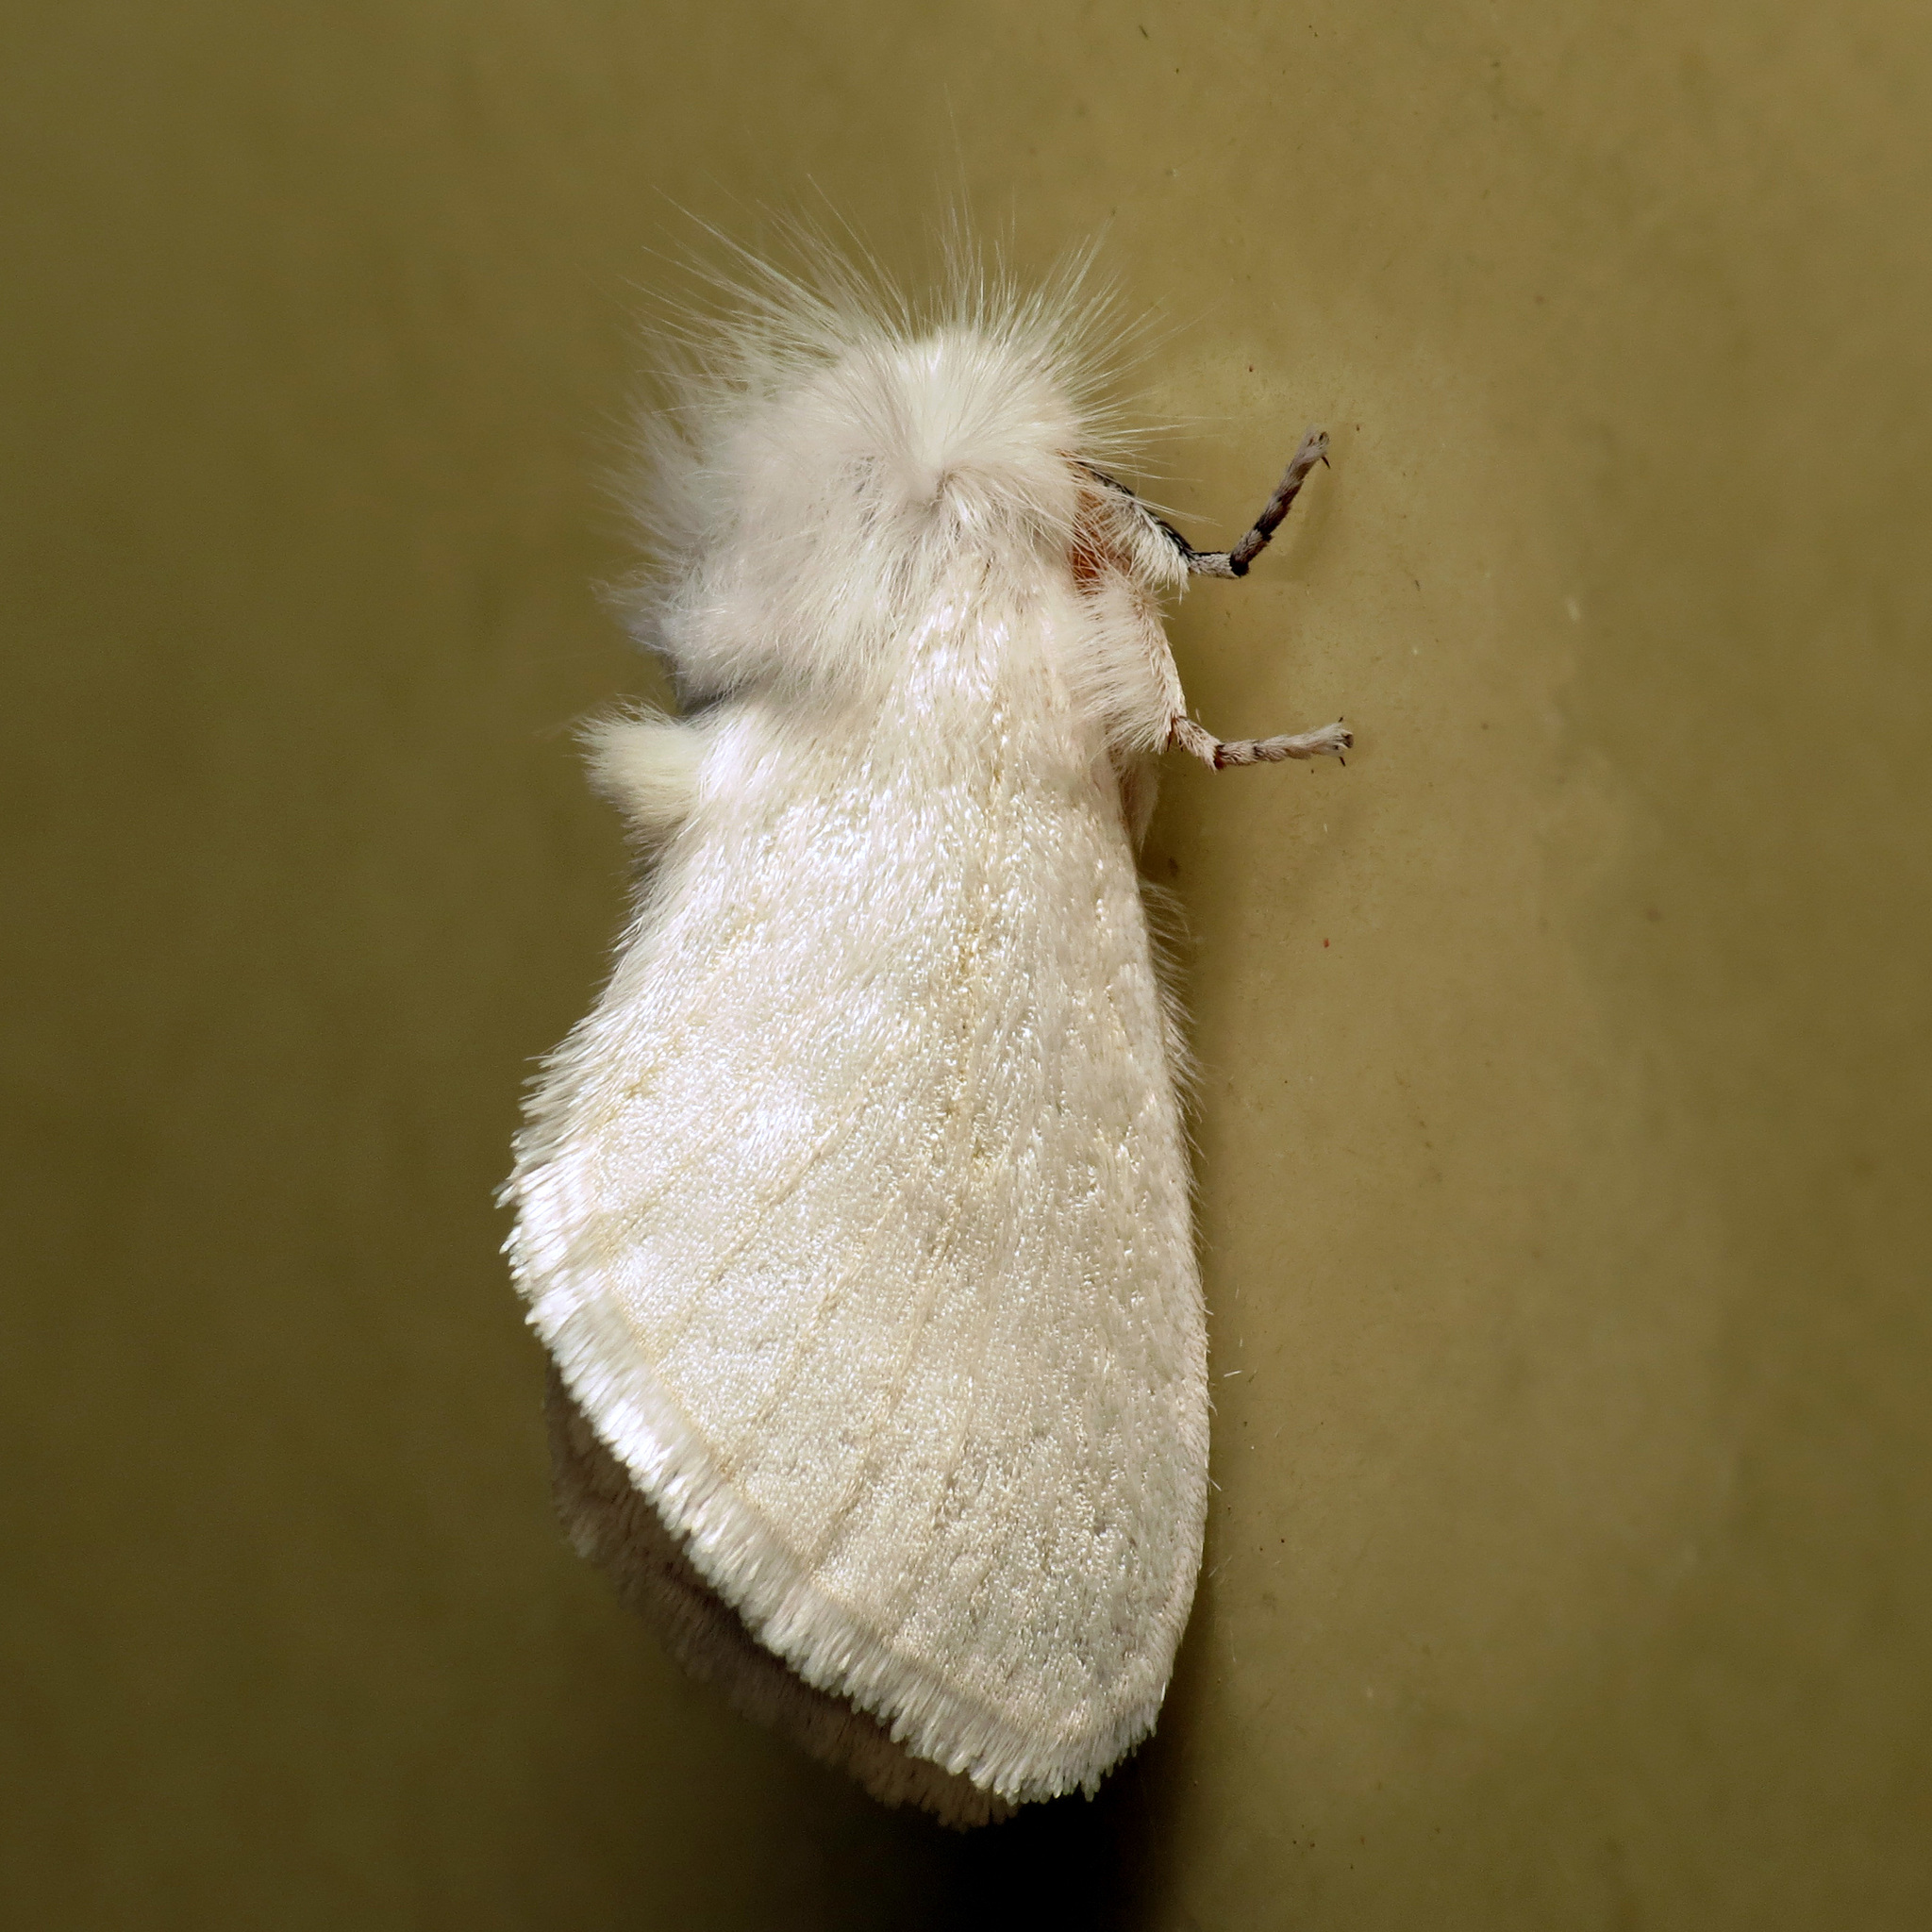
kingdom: Animalia
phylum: Arthropoda
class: Insecta
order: Lepidoptera
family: Megalopygidae
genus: Norape
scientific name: Norape sorpresa
